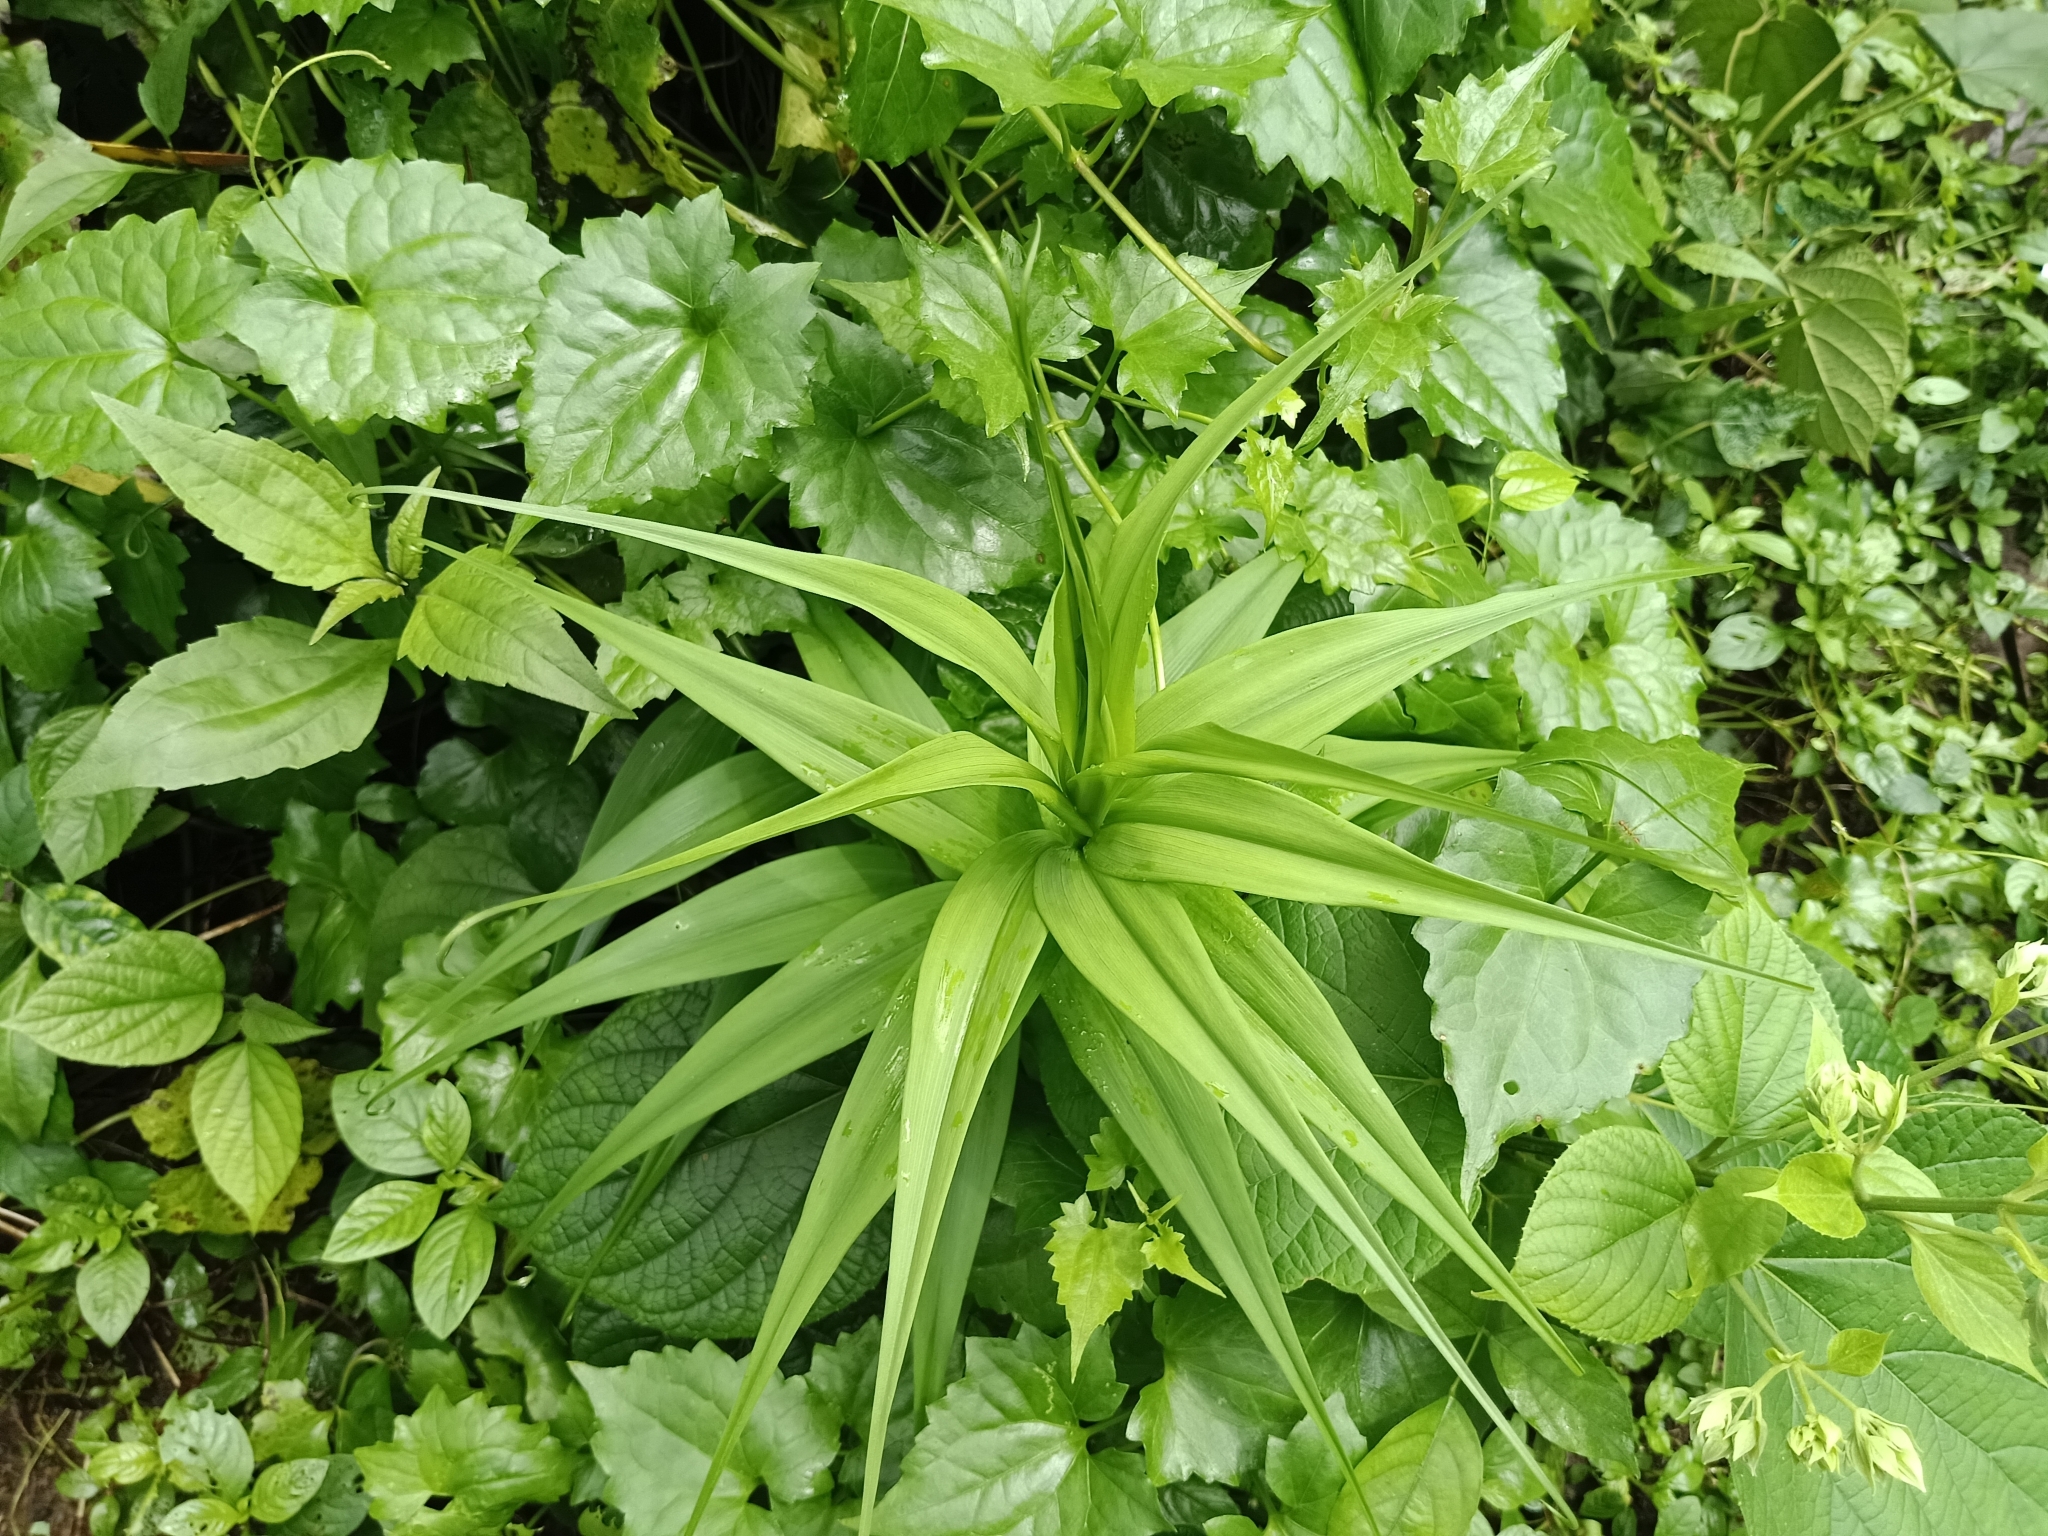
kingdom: Plantae
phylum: Tracheophyta
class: Liliopsida
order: Liliales
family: Colchicaceae
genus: Gloriosa
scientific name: Gloriosa superba
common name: Flame lily
